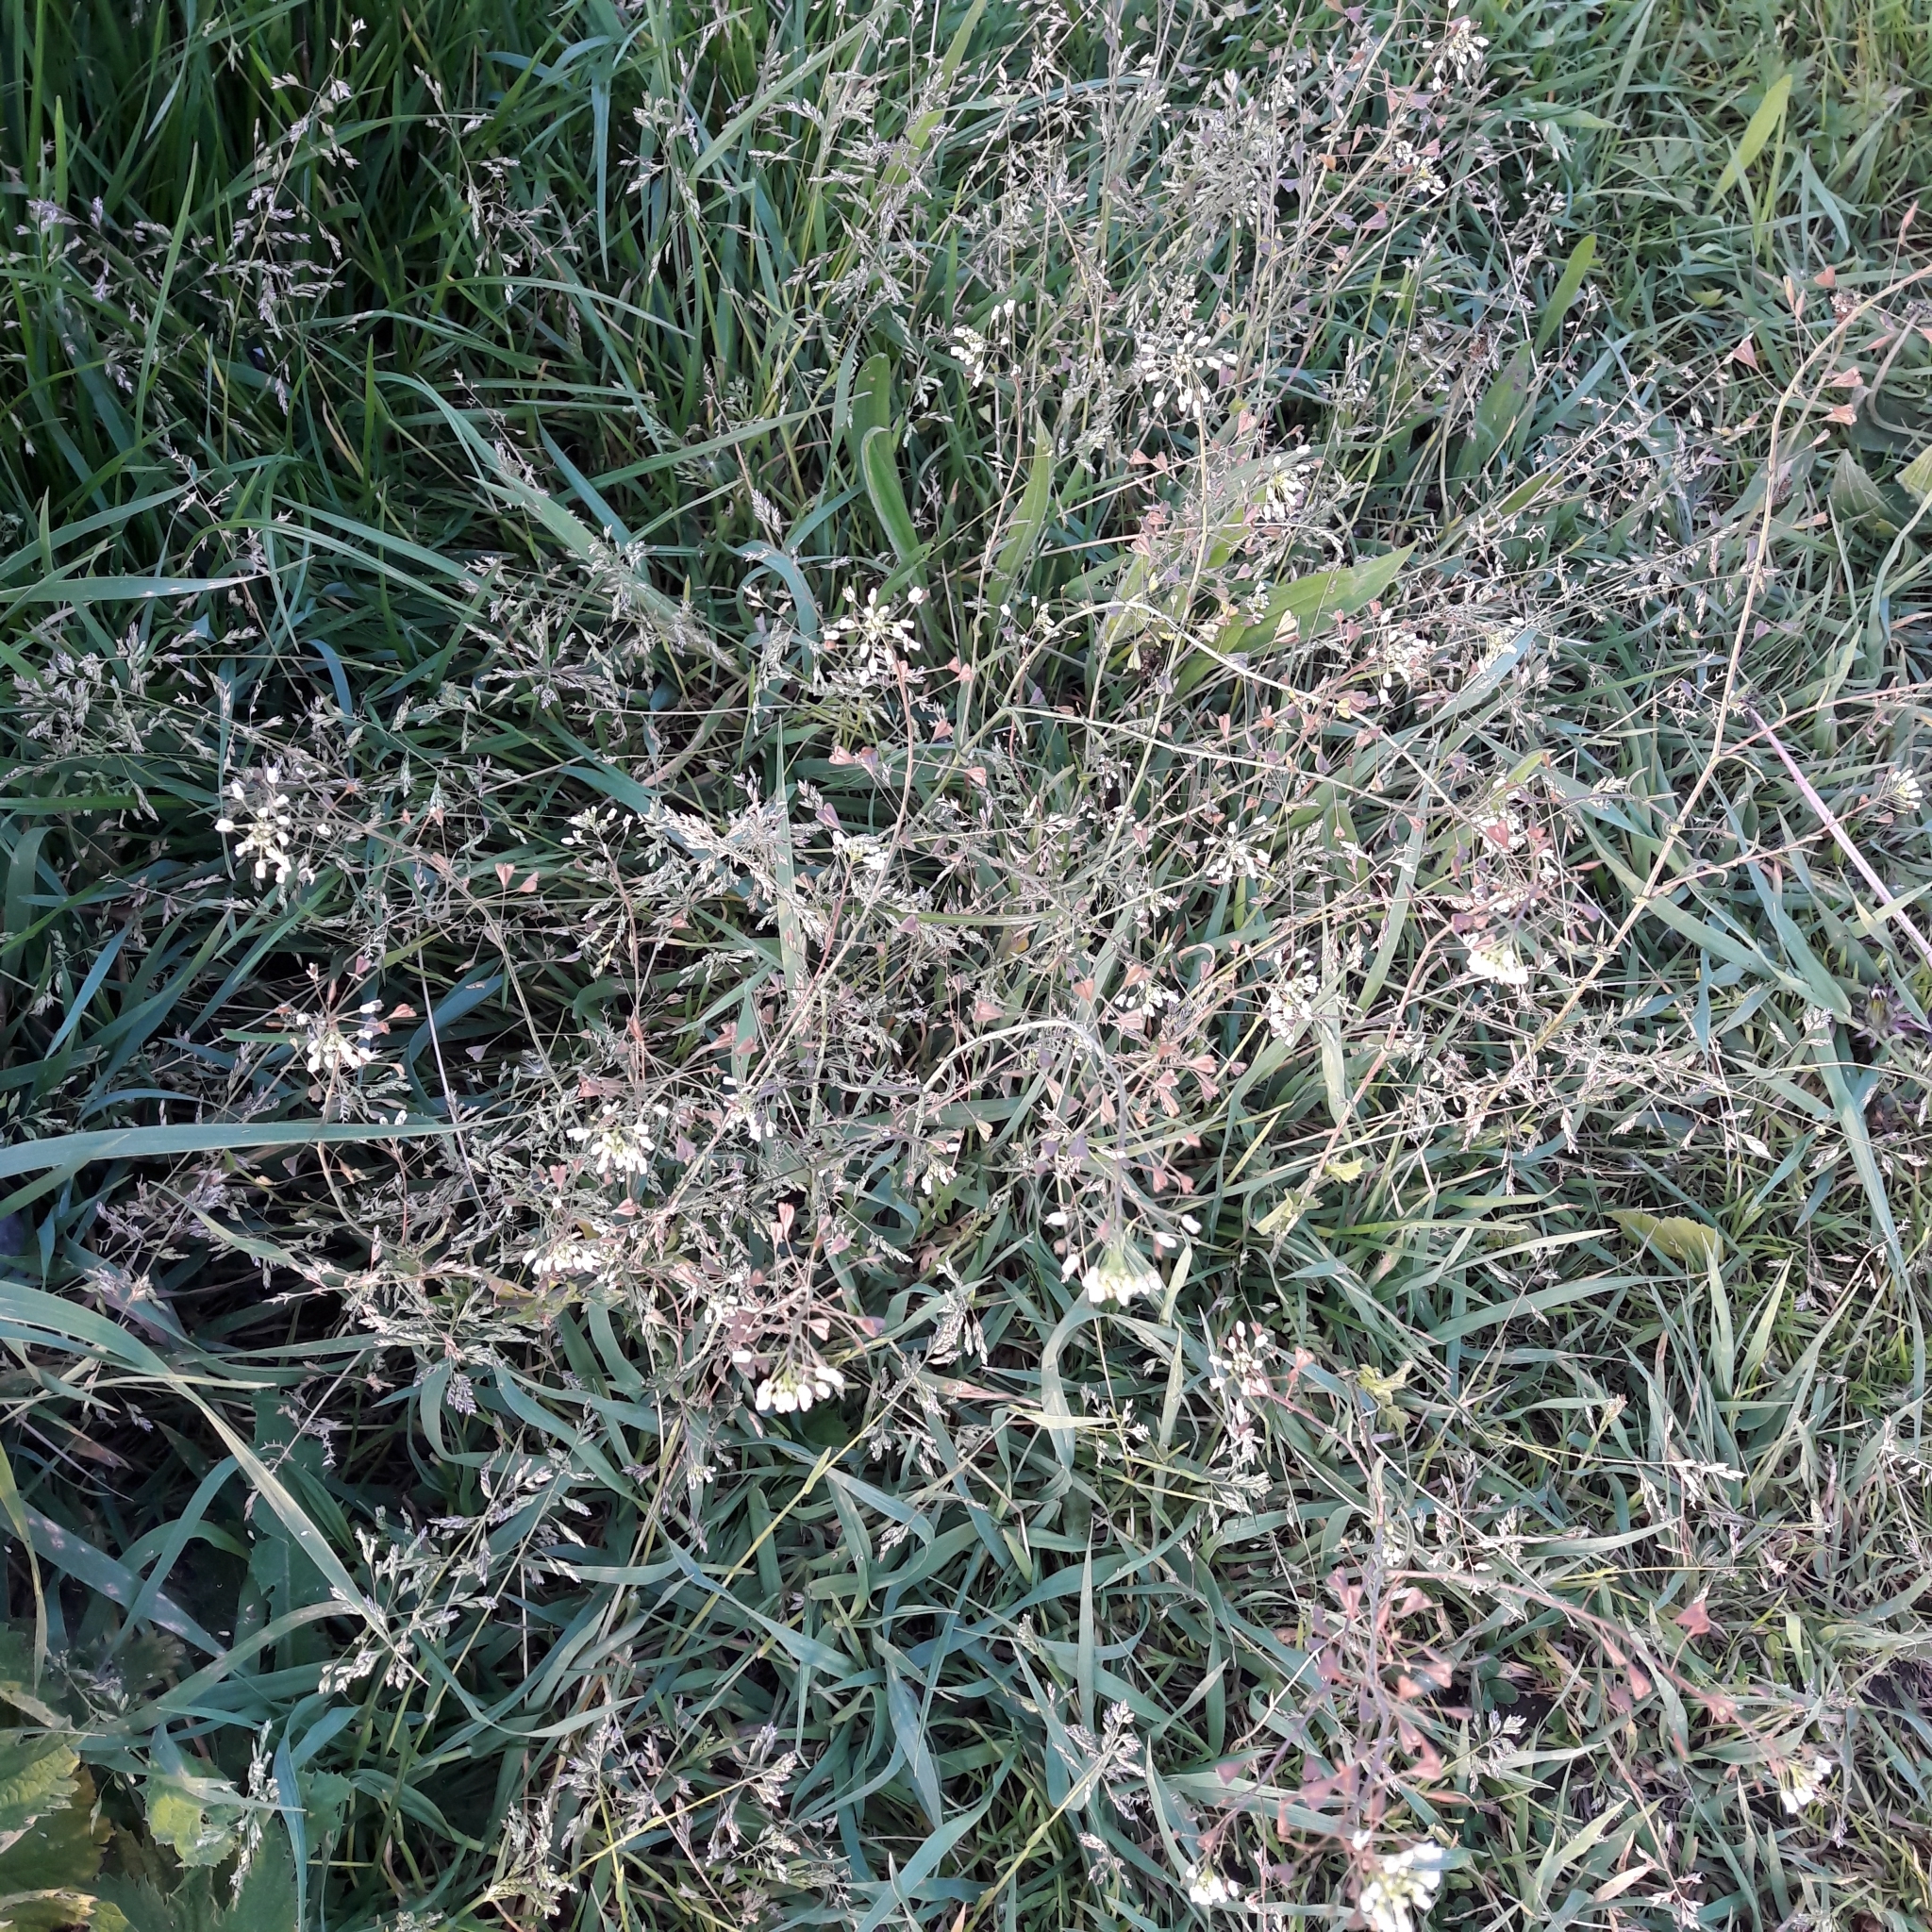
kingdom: Plantae
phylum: Tracheophyta
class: Magnoliopsida
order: Brassicales
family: Brassicaceae
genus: Capsella
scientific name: Capsella bursa-pastoris
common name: Shepherd's purse
